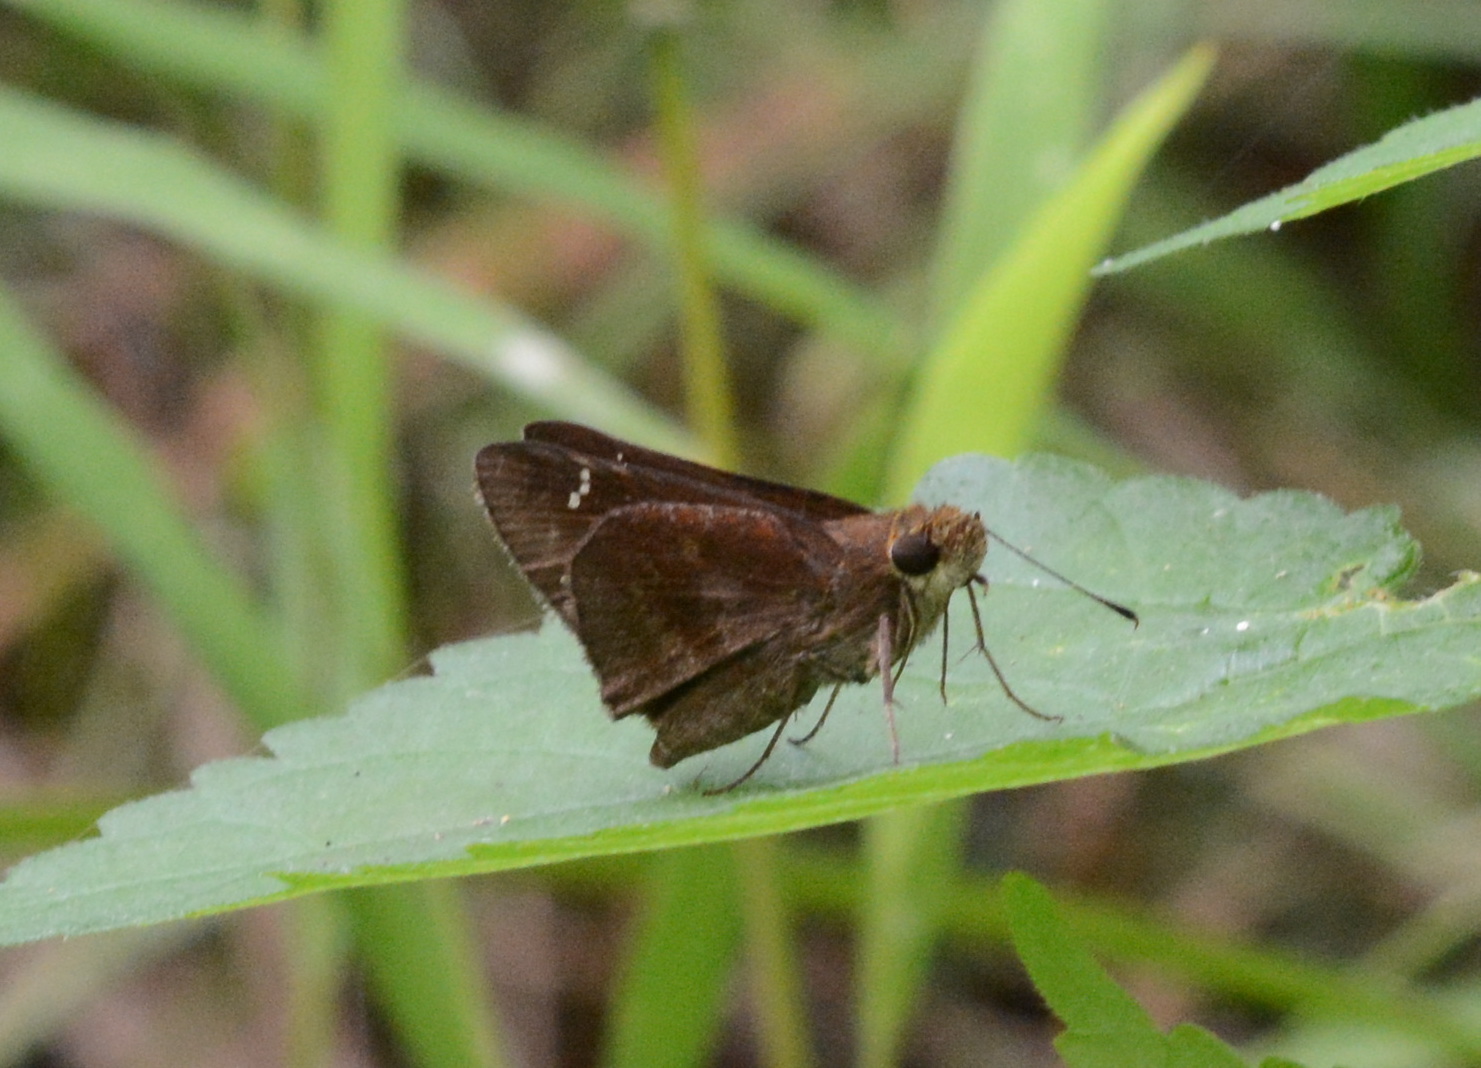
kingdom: Animalia
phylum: Arthropoda
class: Insecta
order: Lepidoptera
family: Hesperiidae
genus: Lerema
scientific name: Lerema accius
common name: Clouded skipper
